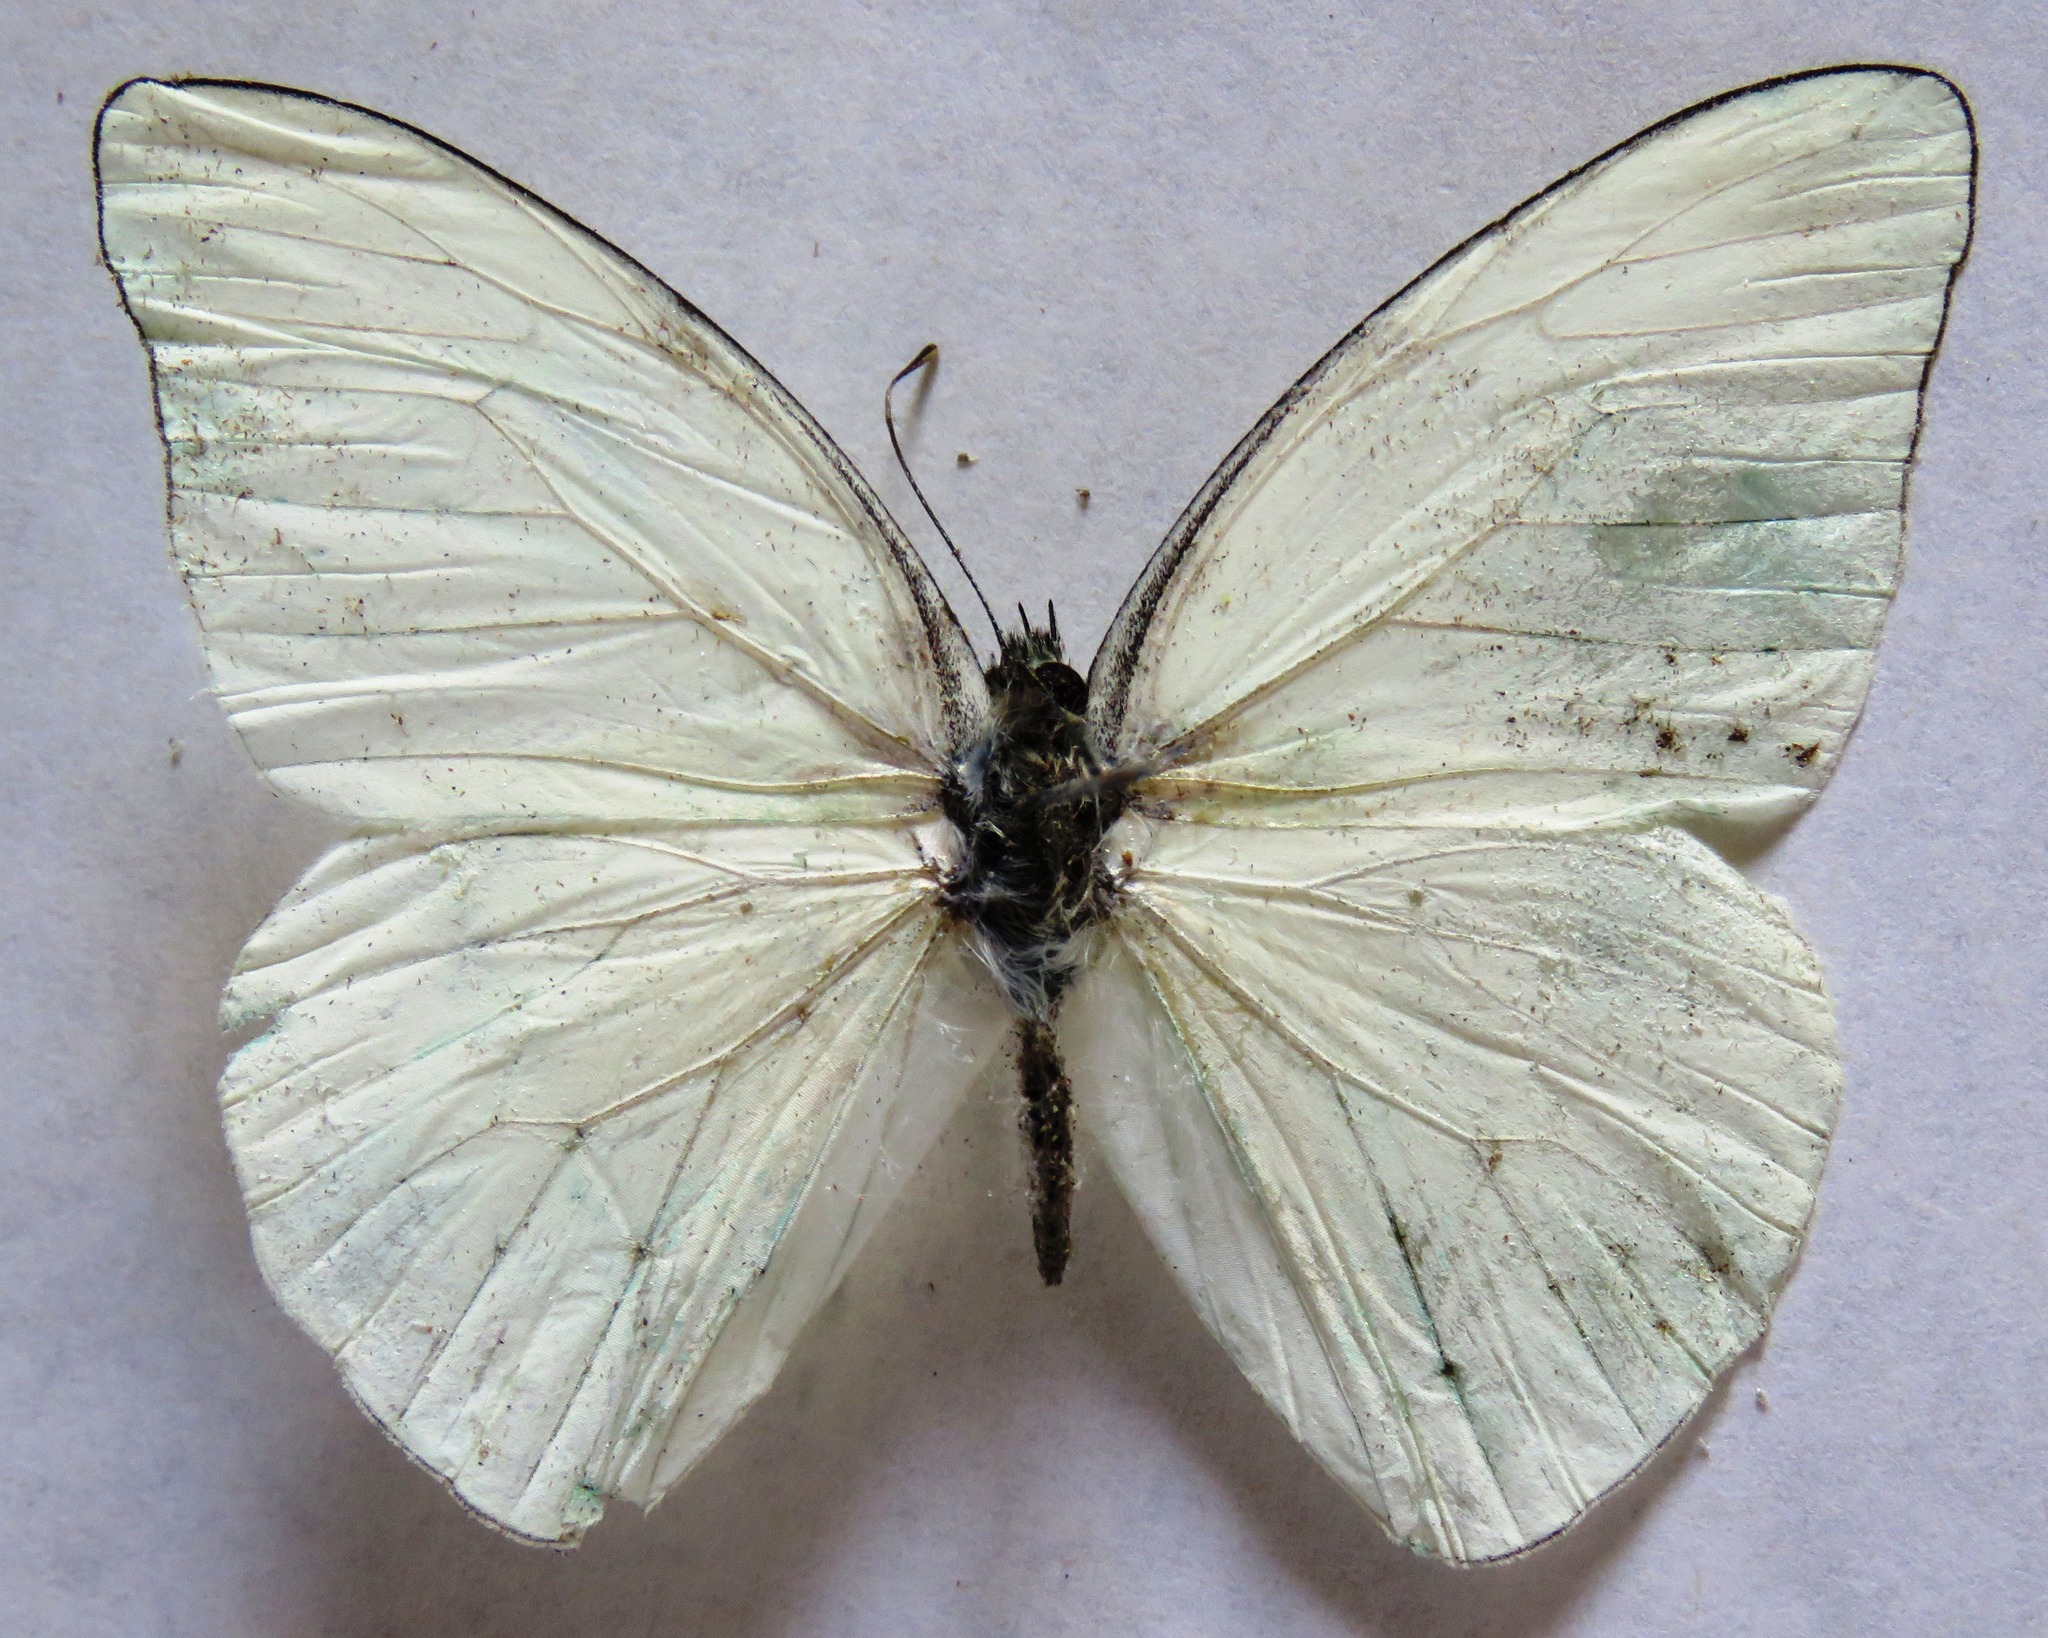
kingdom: Animalia
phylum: Arthropoda
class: Insecta
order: Lepidoptera
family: Pieridae
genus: Glutophrissa
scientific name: Glutophrissa drusilla
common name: Florida white
